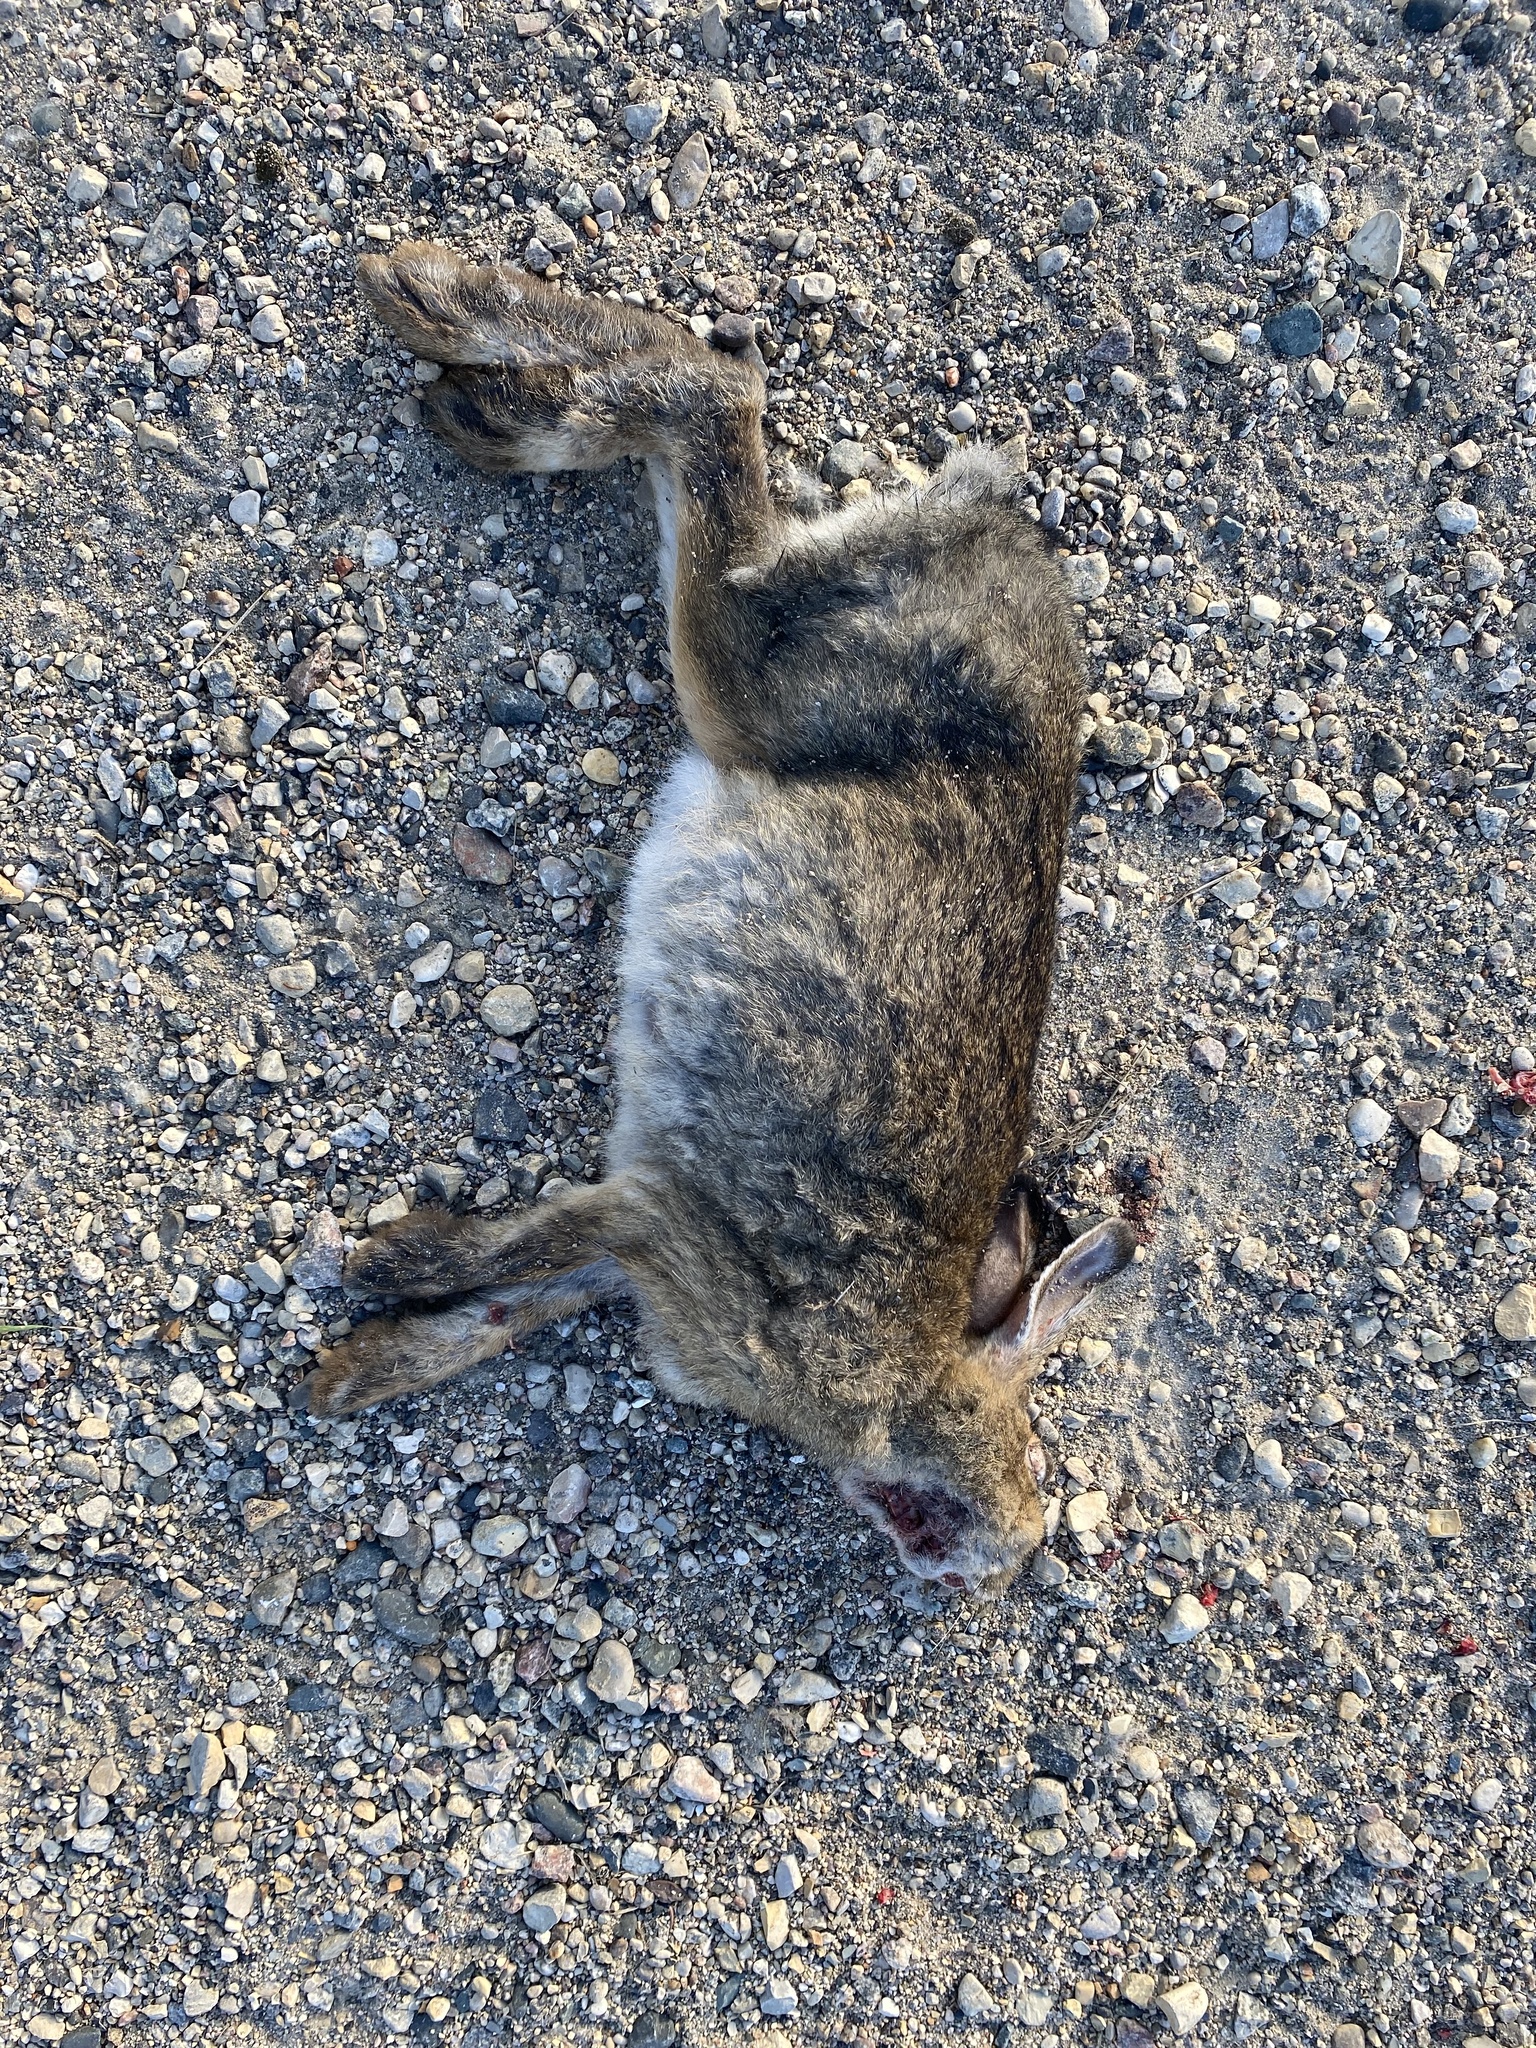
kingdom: Animalia
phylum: Chordata
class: Mammalia
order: Lagomorpha
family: Leporidae
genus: Lepus
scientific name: Lepus americanus
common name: Snowshoe hare
